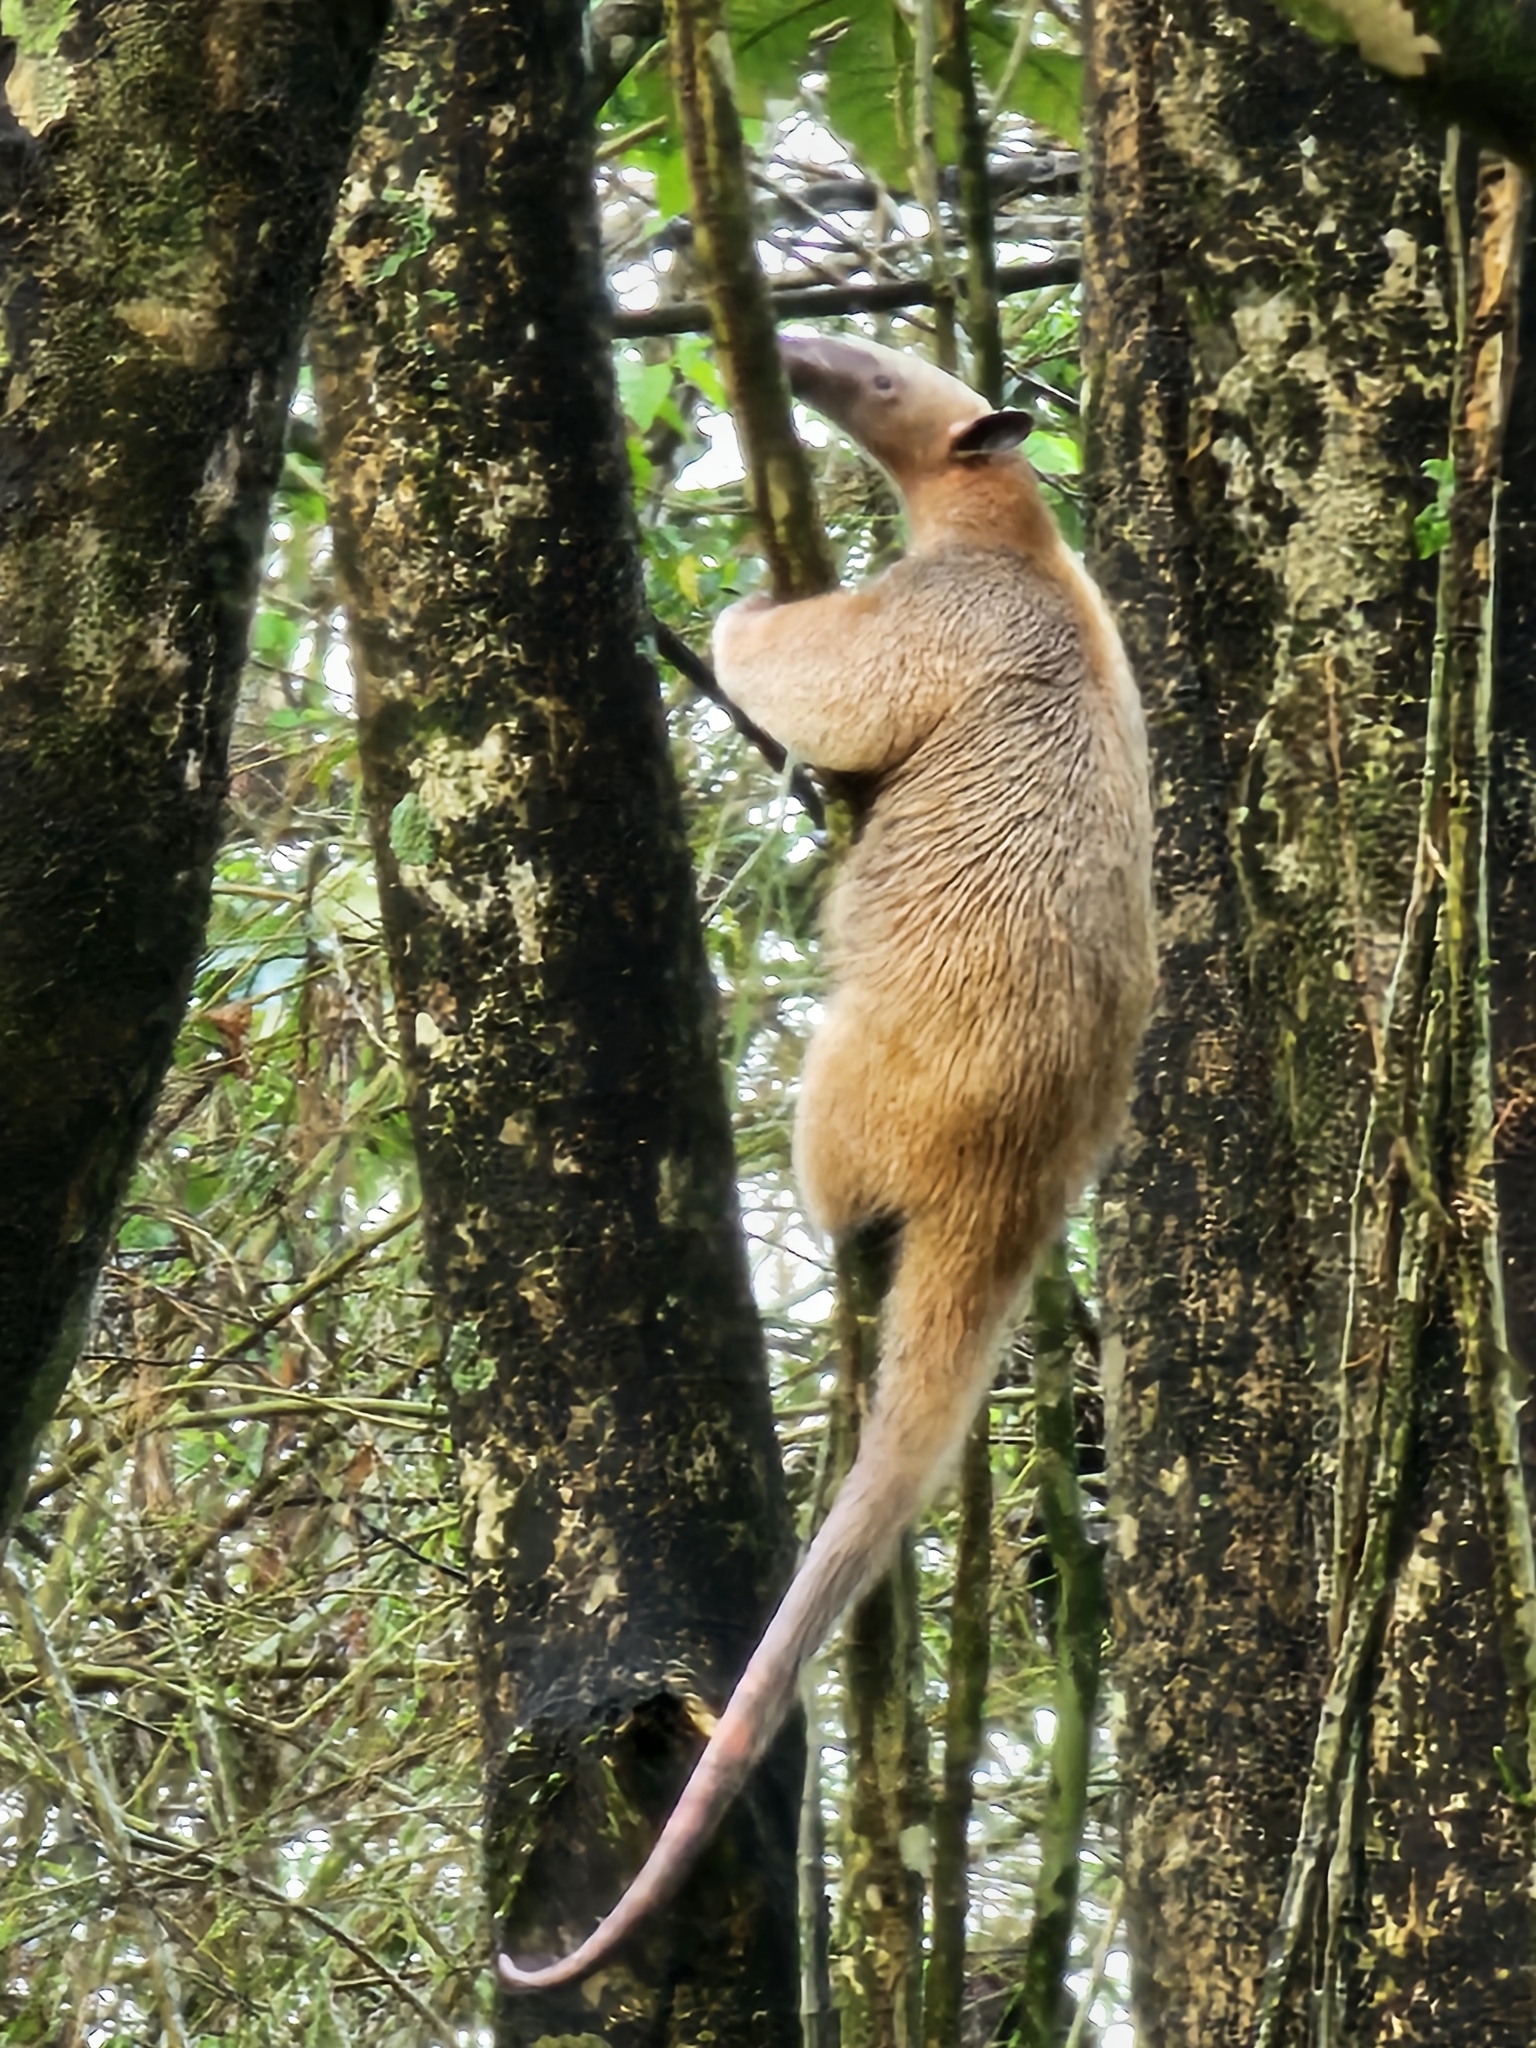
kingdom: Animalia
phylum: Chordata
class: Mammalia
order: Pilosa
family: Myrmecophagidae
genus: Tamandua
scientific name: Tamandua tetradactyla
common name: Southern tamandua
